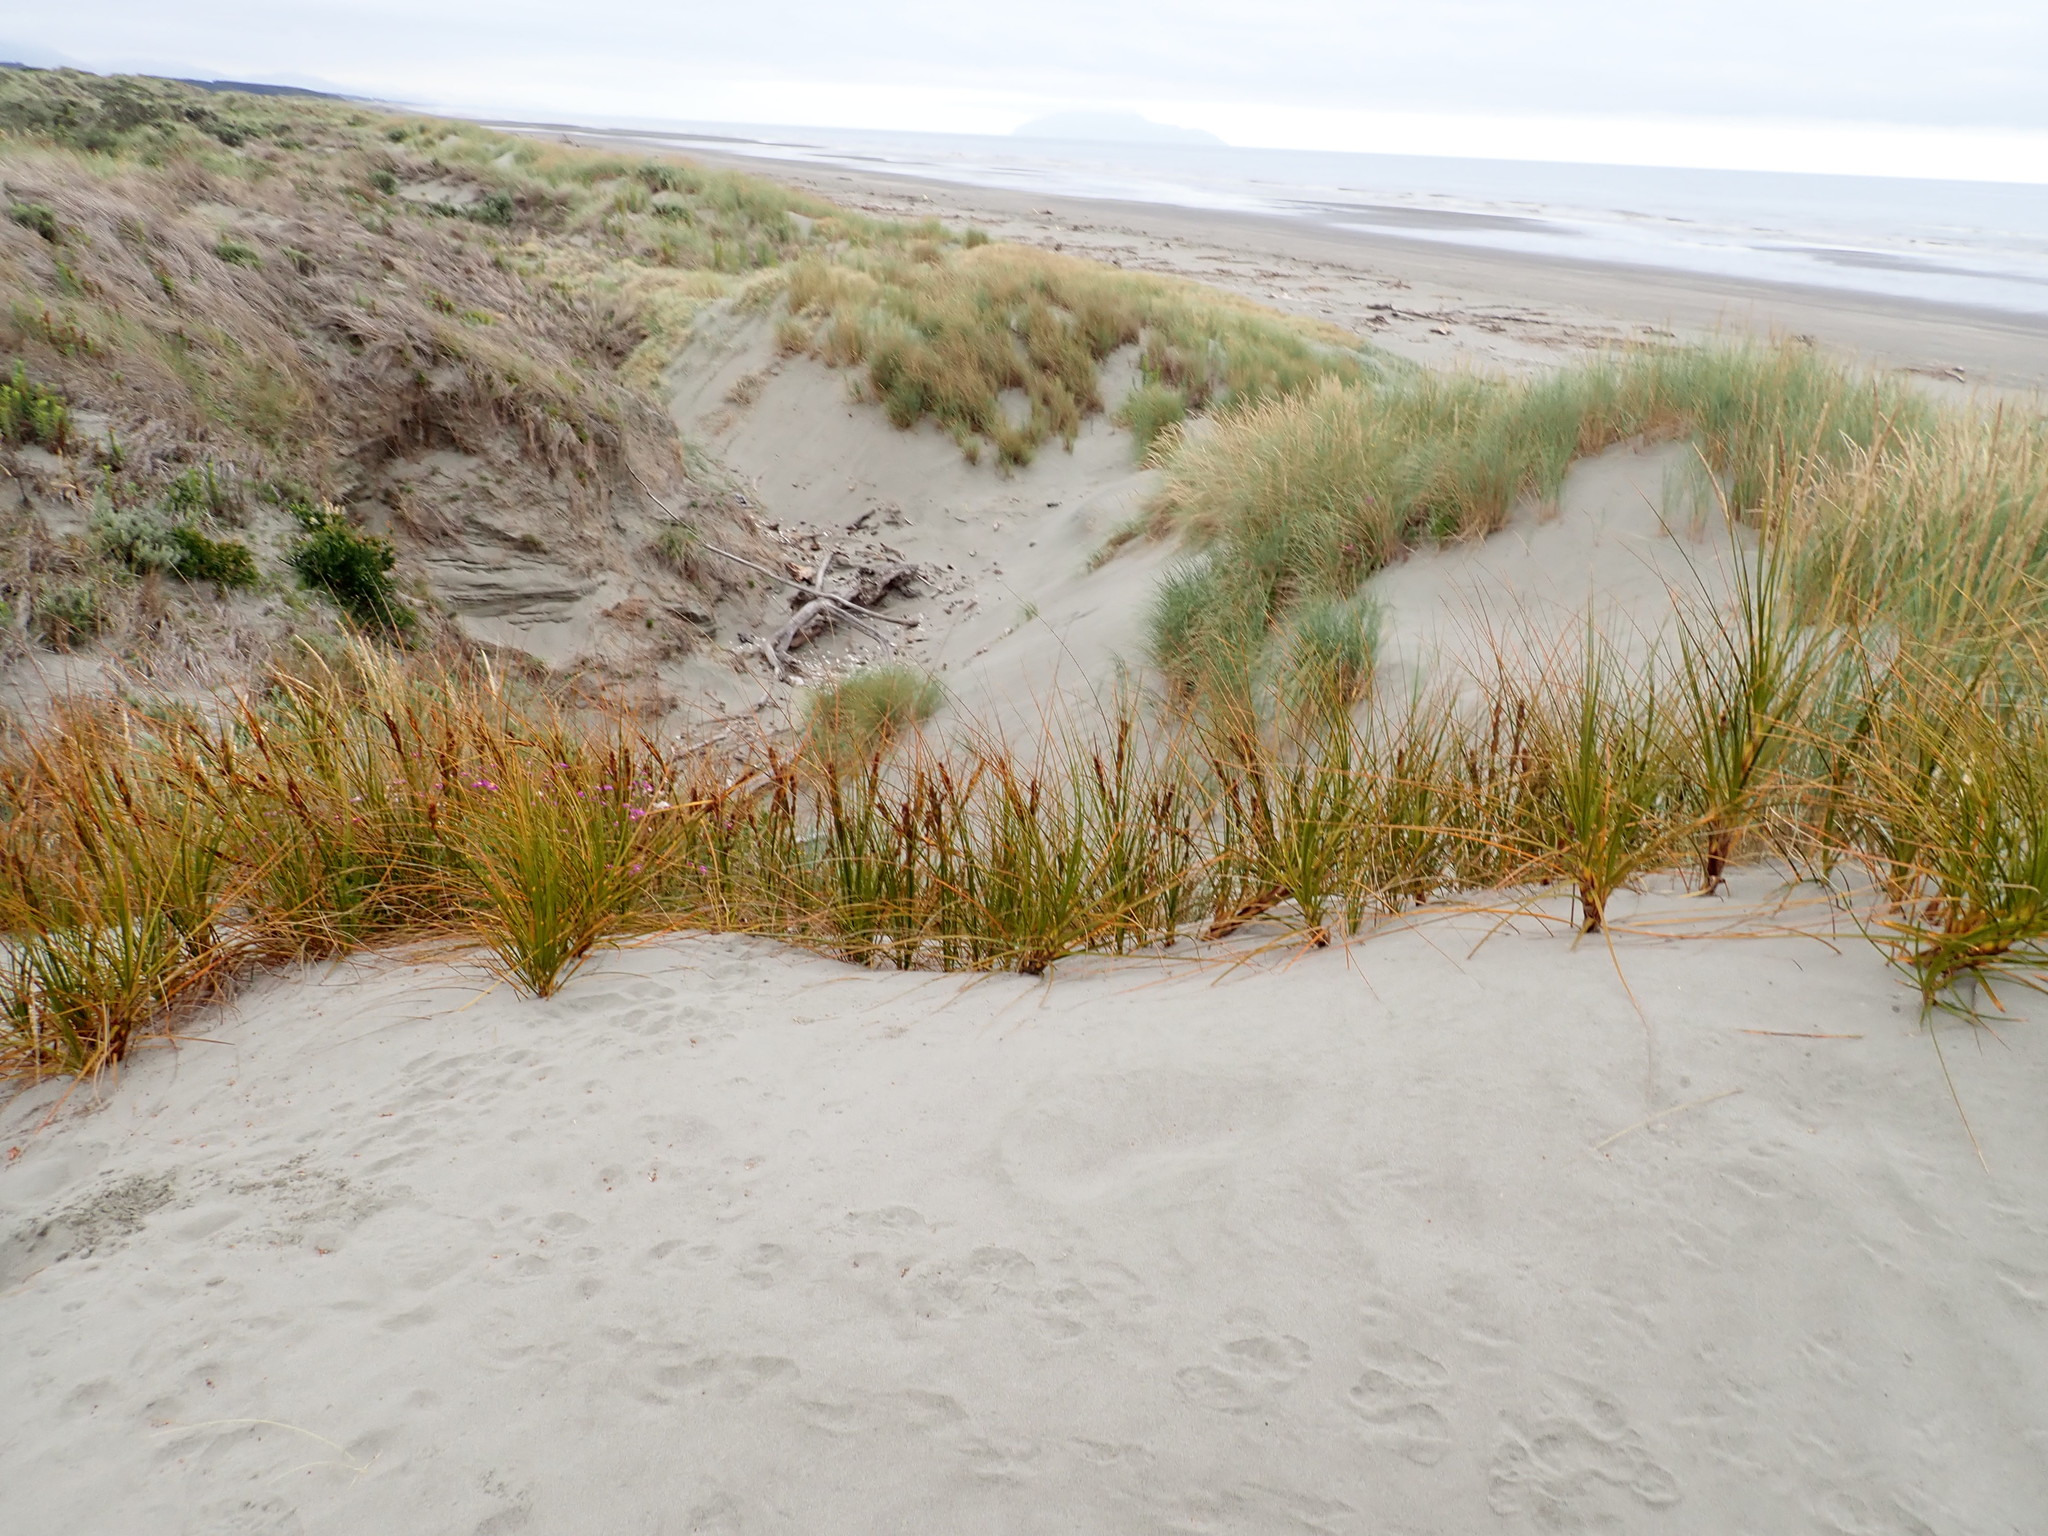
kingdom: Plantae
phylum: Tracheophyta
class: Liliopsida
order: Poales
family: Cyperaceae
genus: Ficinia
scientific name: Ficinia spiralis
